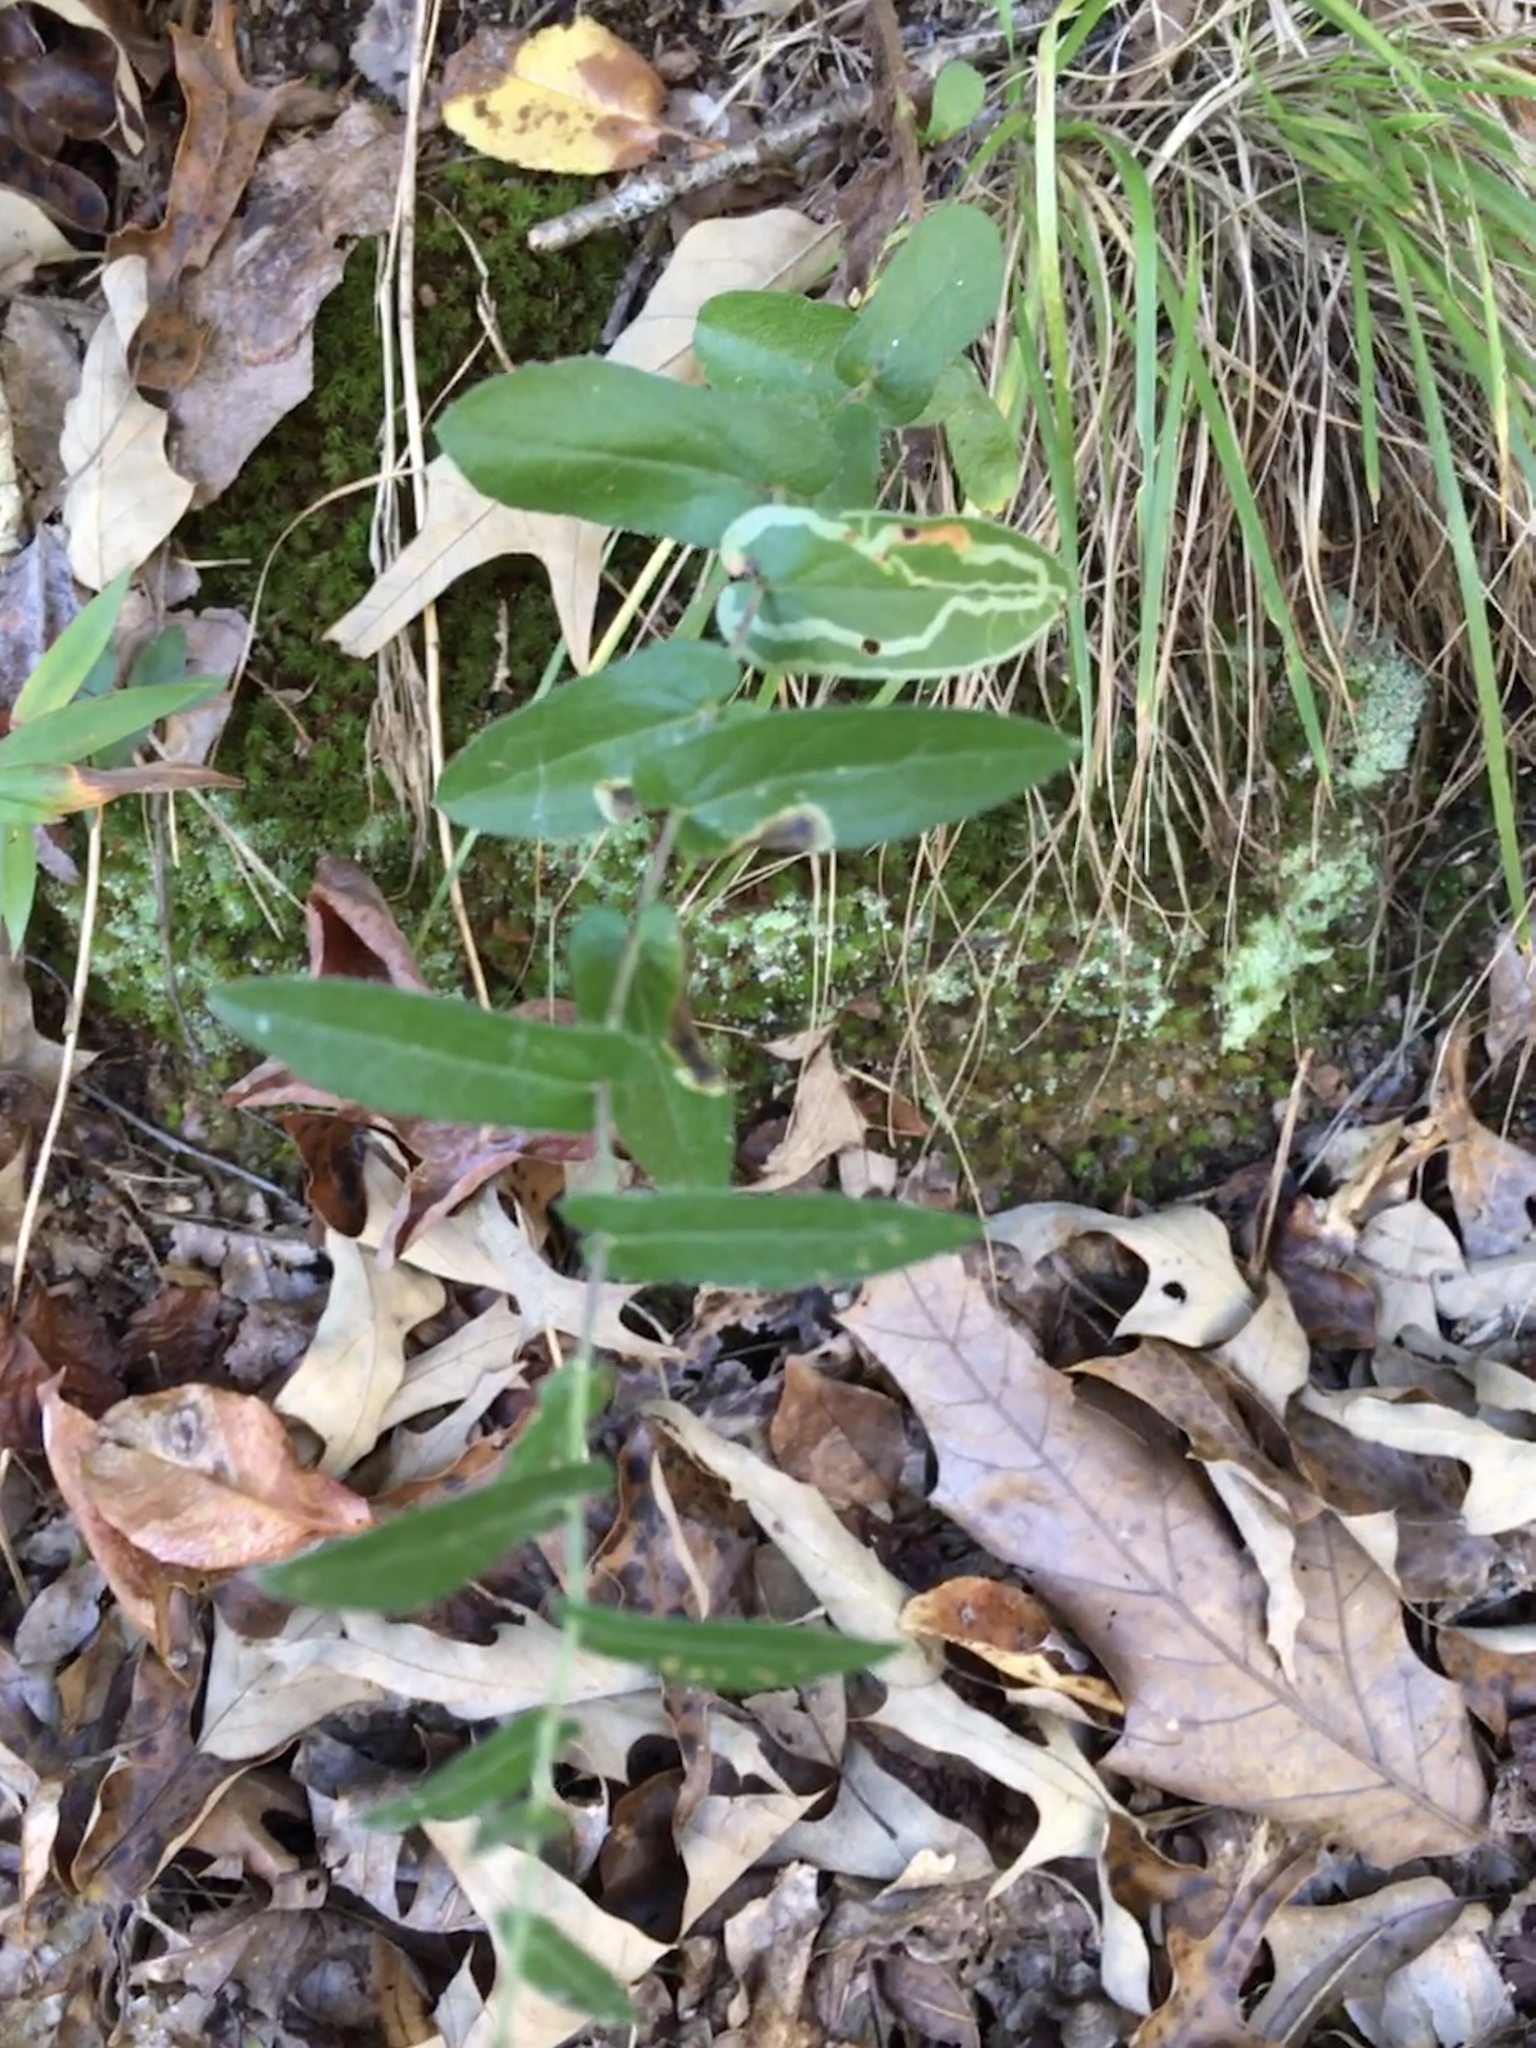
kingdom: Plantae
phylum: Tracheophyta
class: Magnoliopsida
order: Asterales
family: Asteraceae
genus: Symphyotrichum
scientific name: Symphyotrichum patens
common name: Late purple aster
